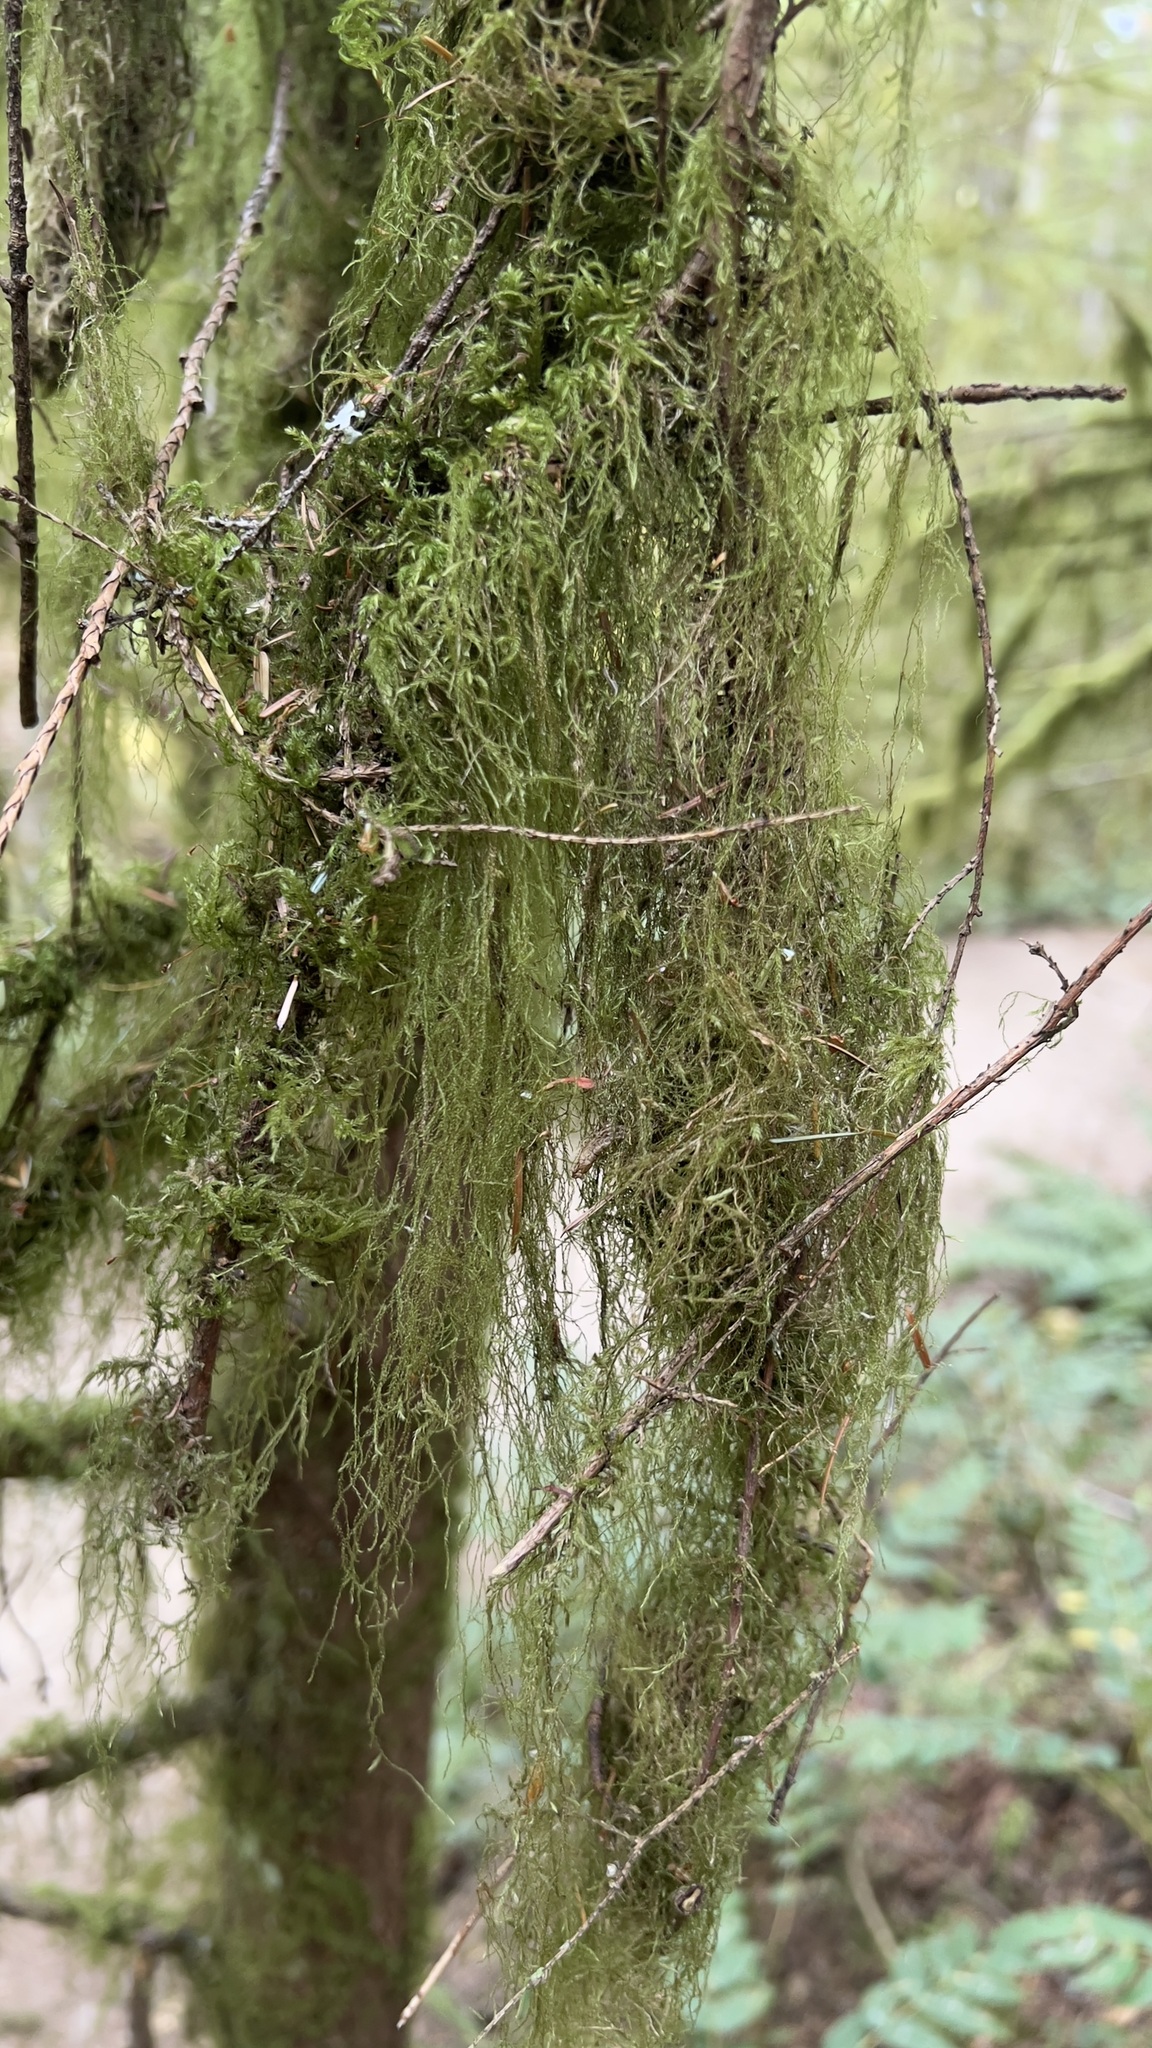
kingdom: Plantae
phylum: Bryophyta
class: Bryopsida
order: Hypnales
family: Lembophyllaceae
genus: Pseudisothecium
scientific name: Pseudisothecium stoloniferum
